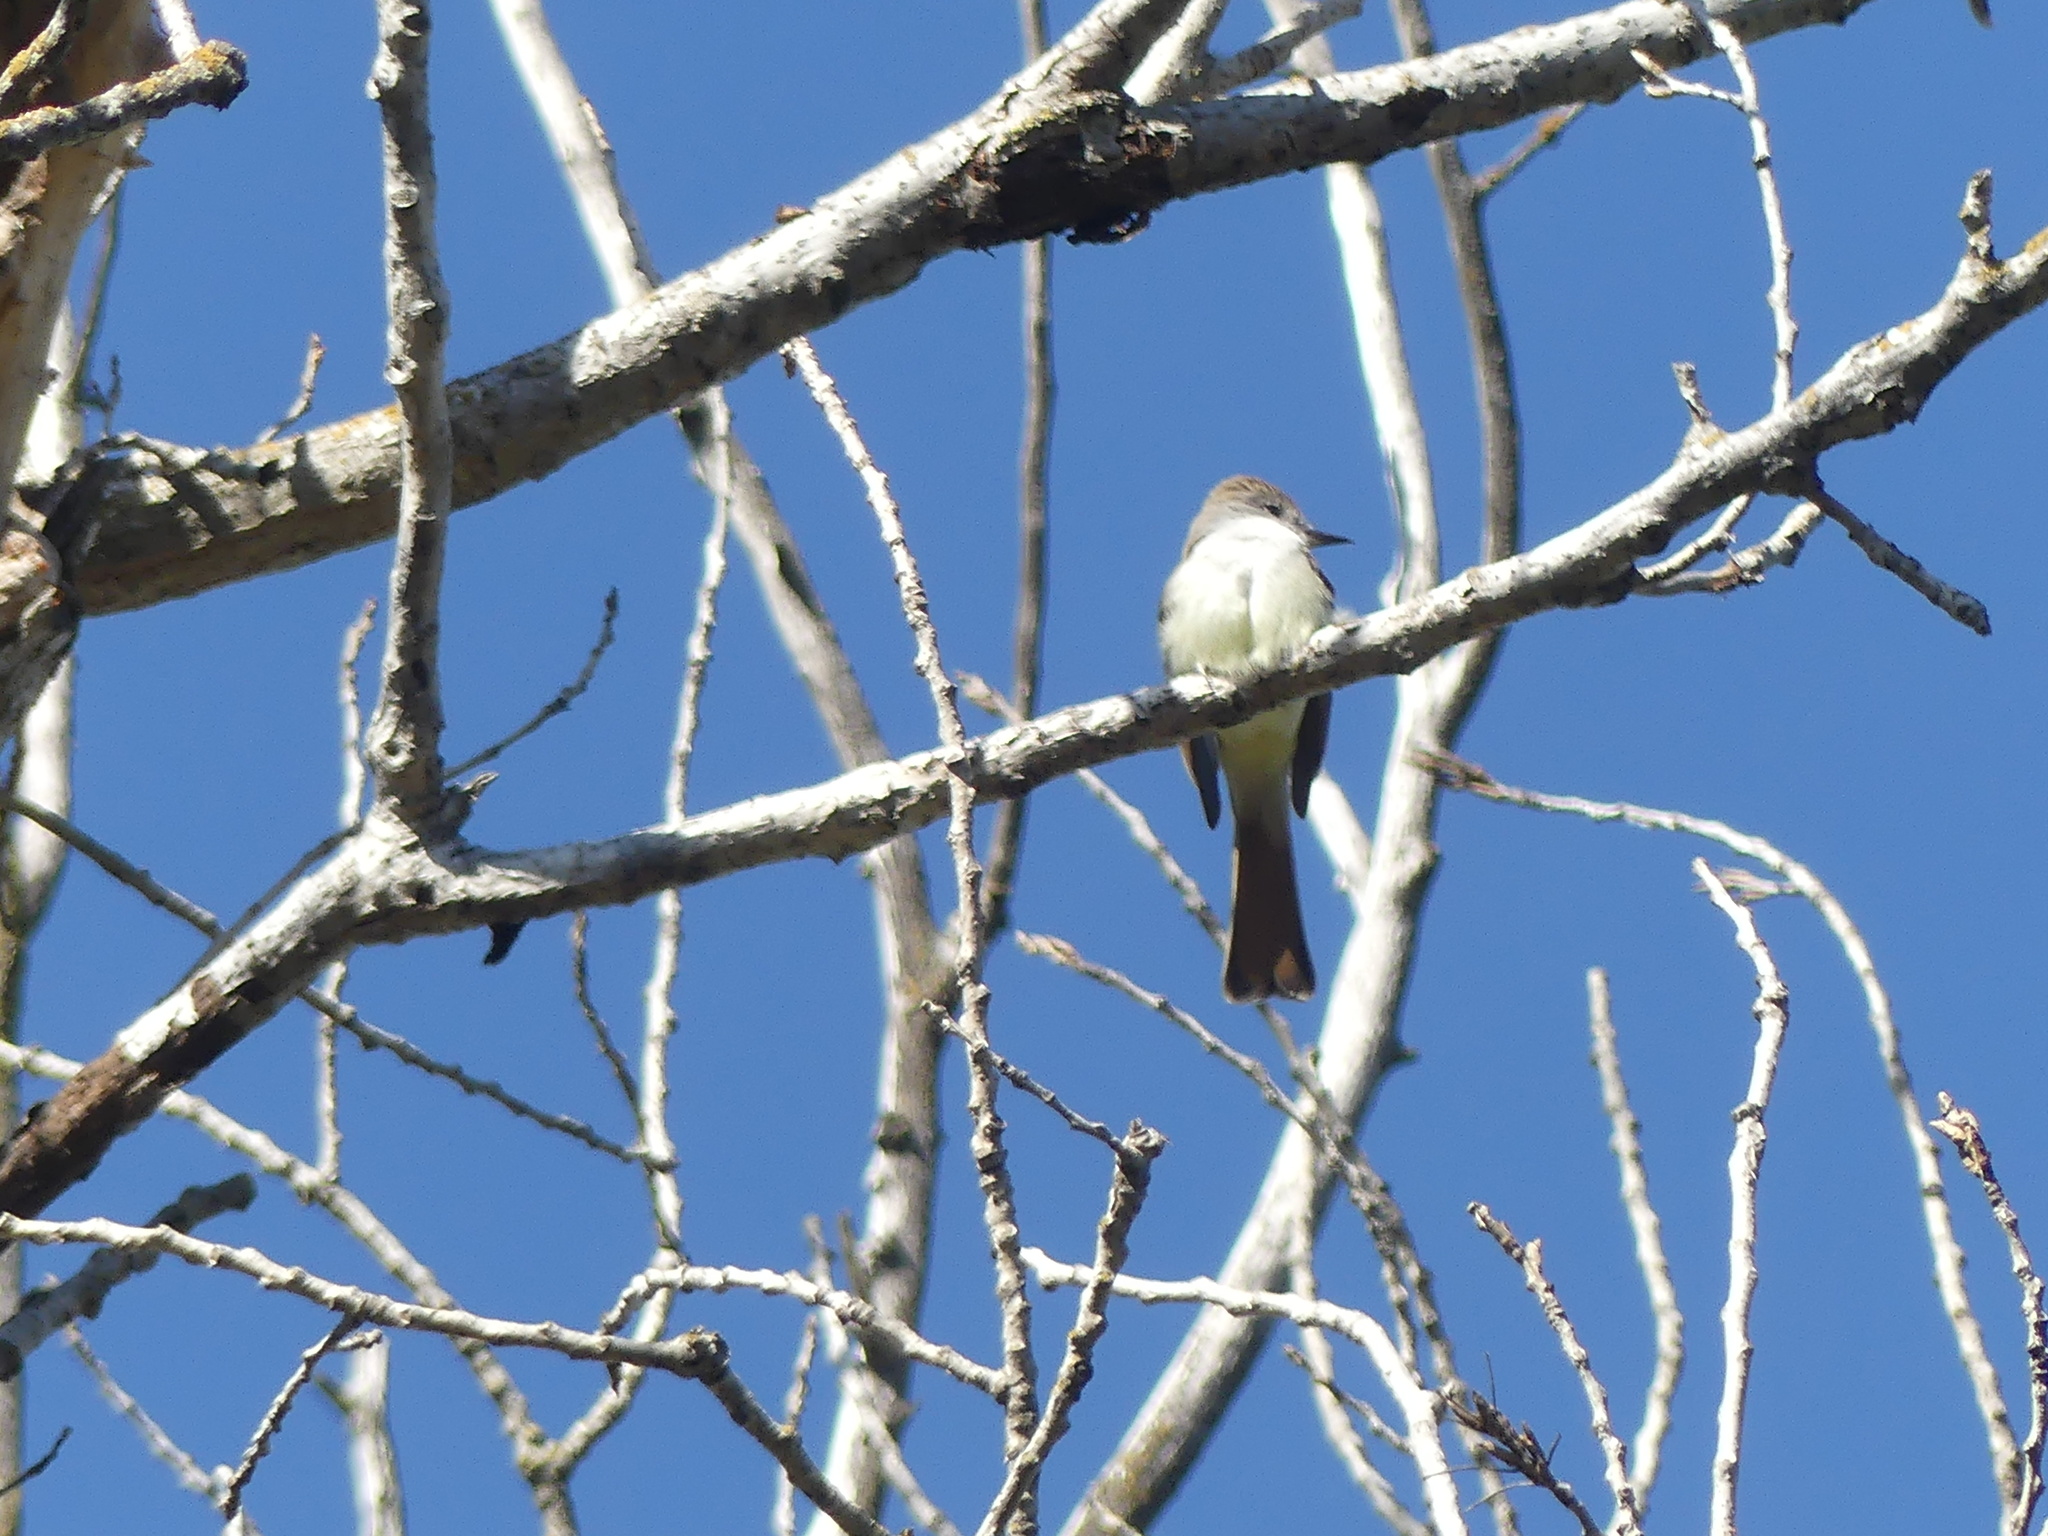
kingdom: Animalia
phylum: Chordata
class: Aves
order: Passeriformes
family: Tyrannidae
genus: Myiarchus
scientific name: Myiarchus cinerascens
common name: Ash-throated flycatcher
